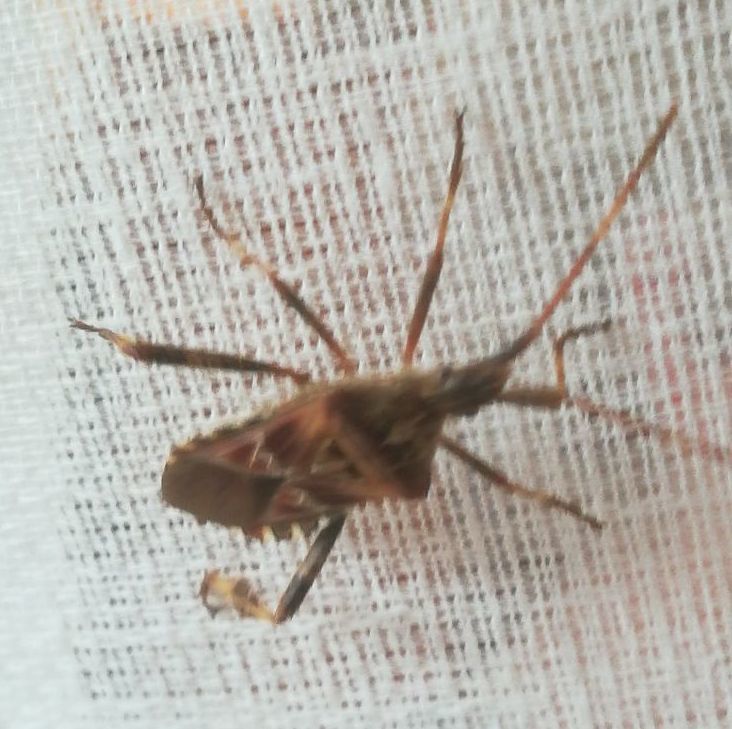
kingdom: Animalia
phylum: Arthropoda
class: Insecta
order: Hemiptera
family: Coreidae
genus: Leptoglossus
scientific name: Leptoglossus occidentalis
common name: Western conifer-seed bug
